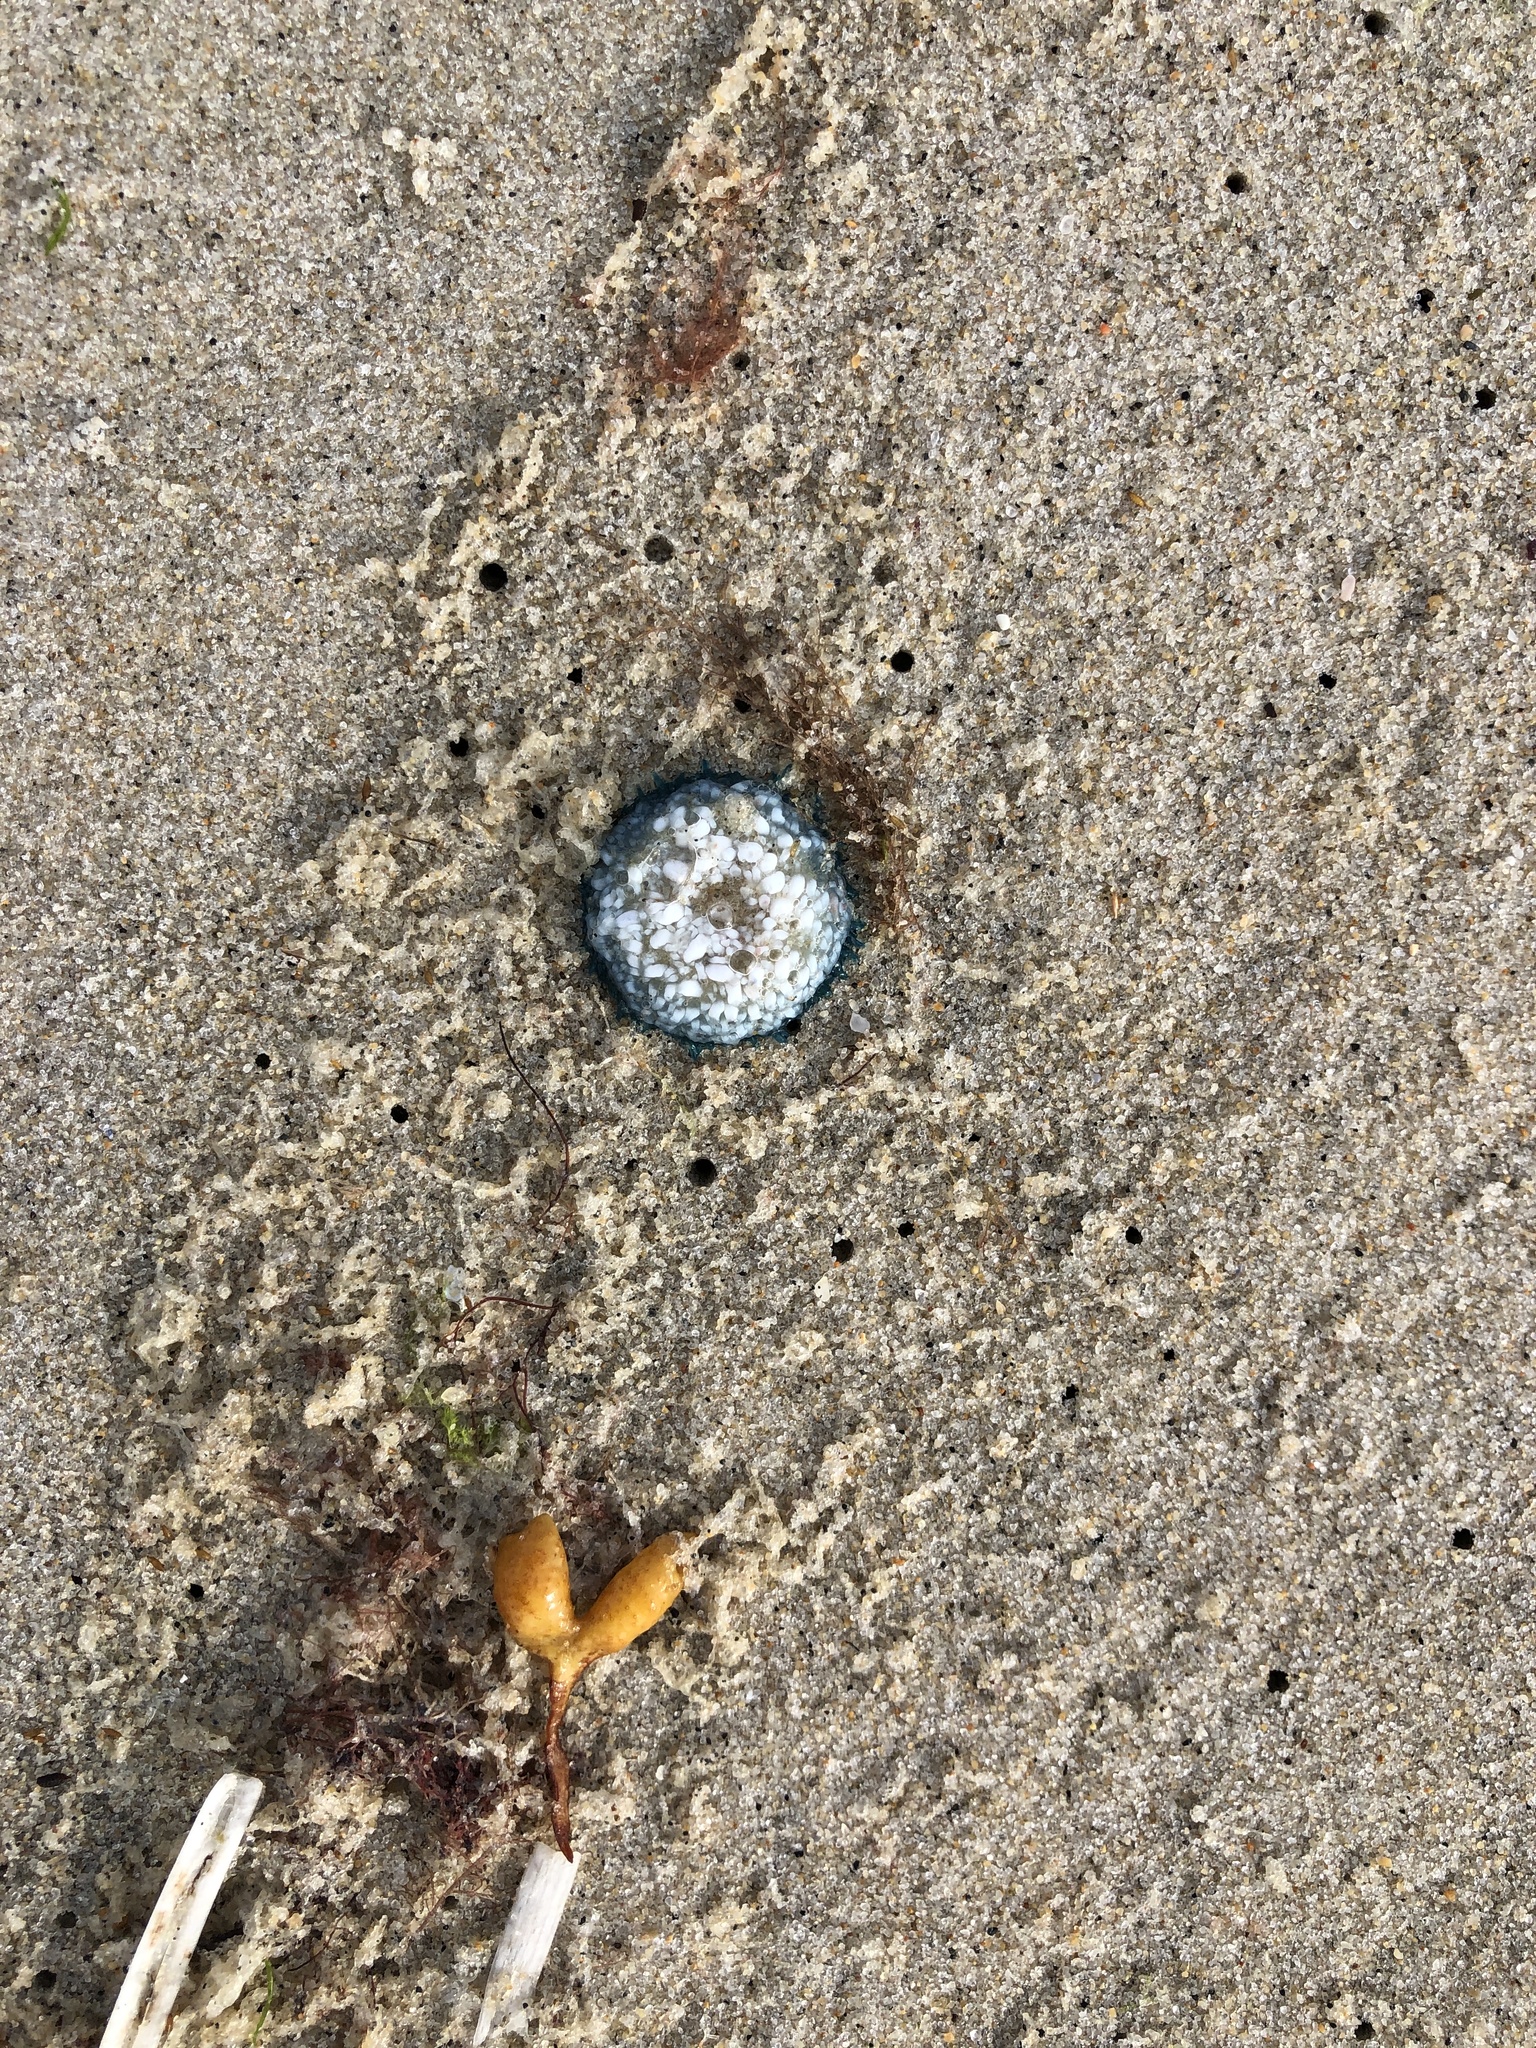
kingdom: Animalia
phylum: Cnidaria
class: Hydrozoa
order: Anthoathecata
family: Porpitidae
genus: Porpita
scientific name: Porpita porpita
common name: Blue button
